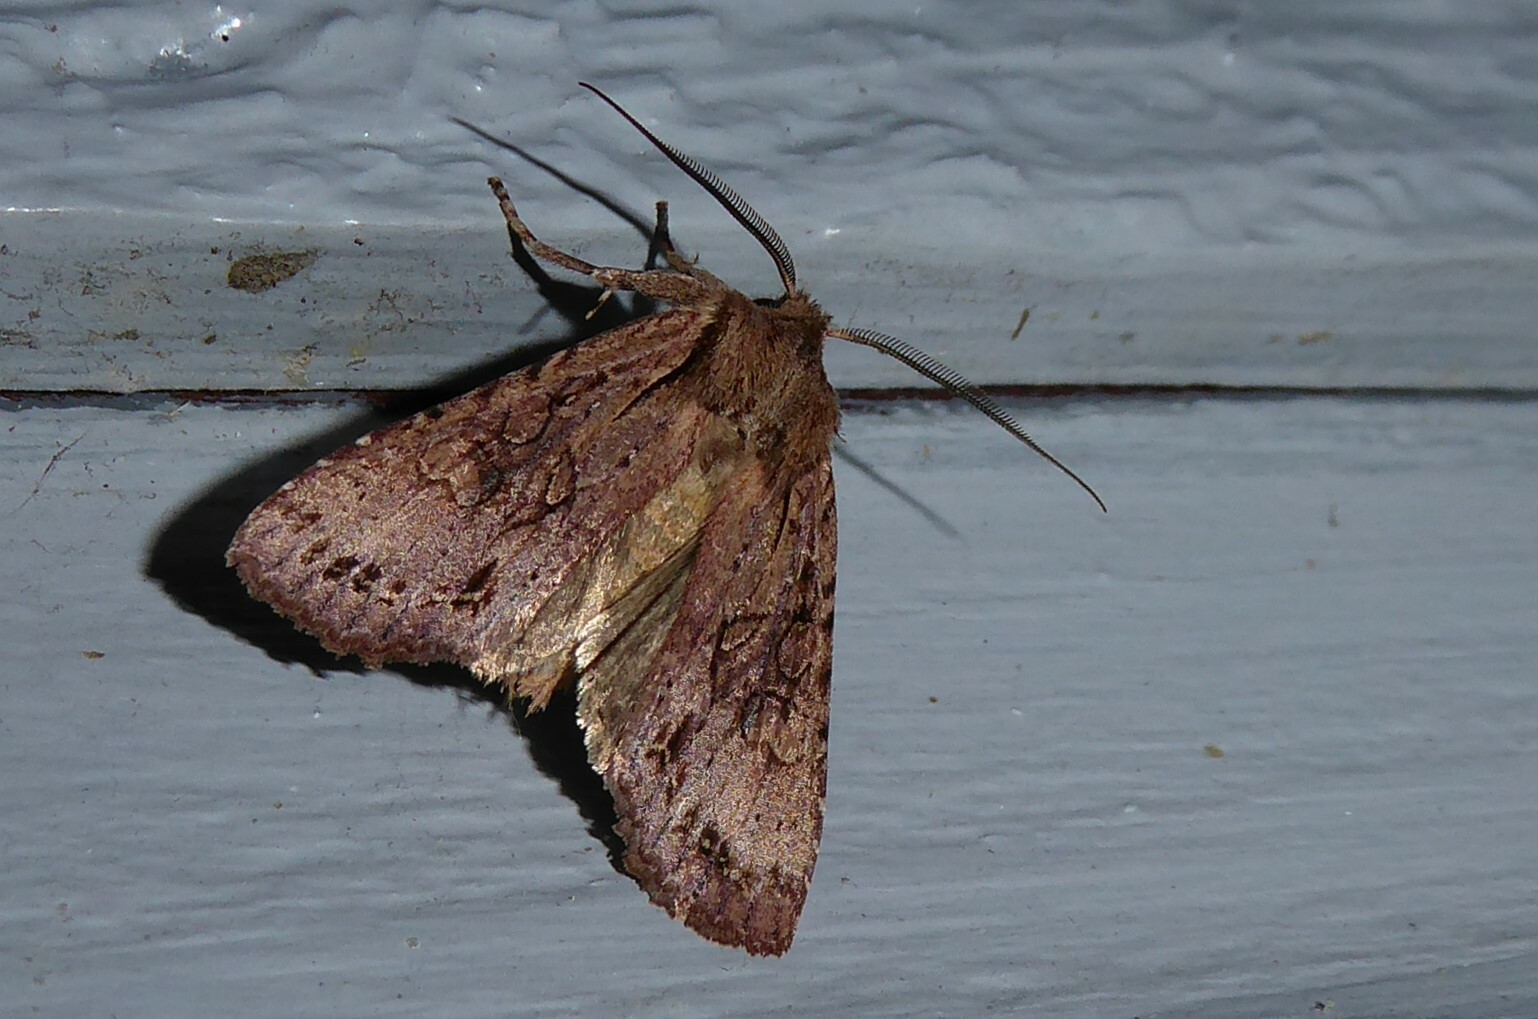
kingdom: Animalia
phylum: Arthropoda
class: Insecta
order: Lepidoptera
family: Noctuidae
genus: Ichneutica
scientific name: Ichneutica
